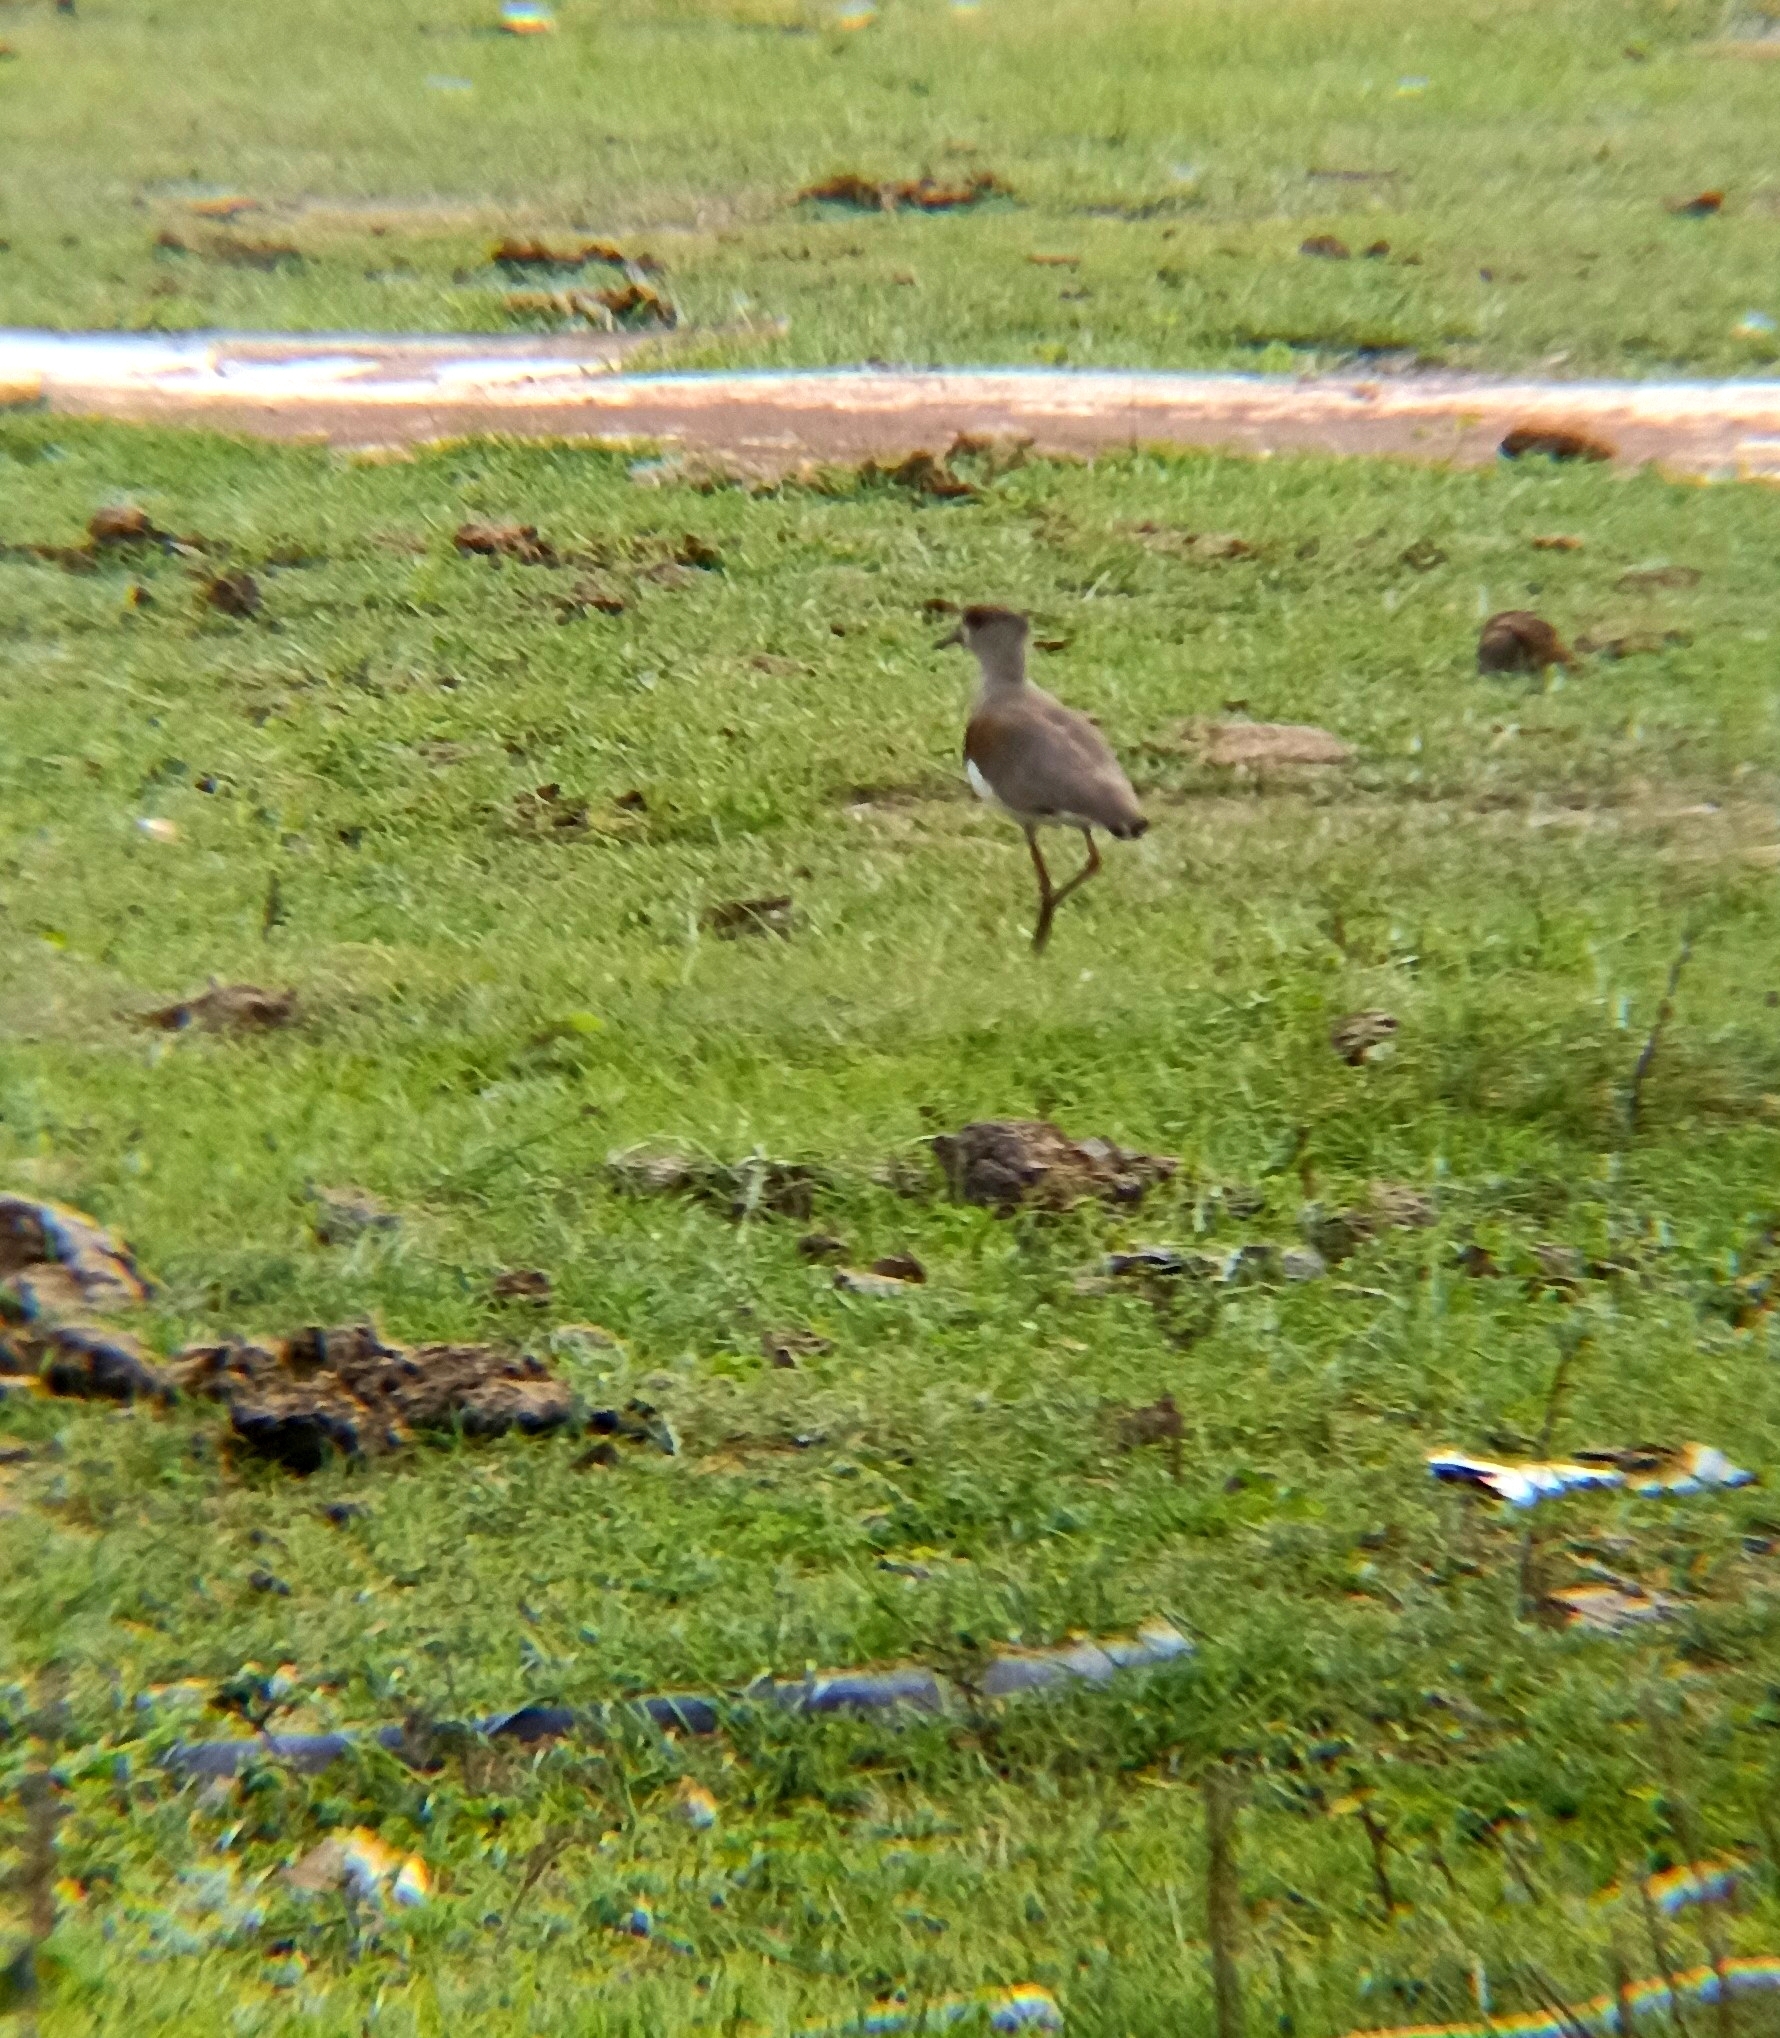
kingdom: Animalia
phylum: Chordata
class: Aves
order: Charadriiformes
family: Charadriidae
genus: Vanellus
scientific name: Vanellus chilensis
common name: Southern lapwing
